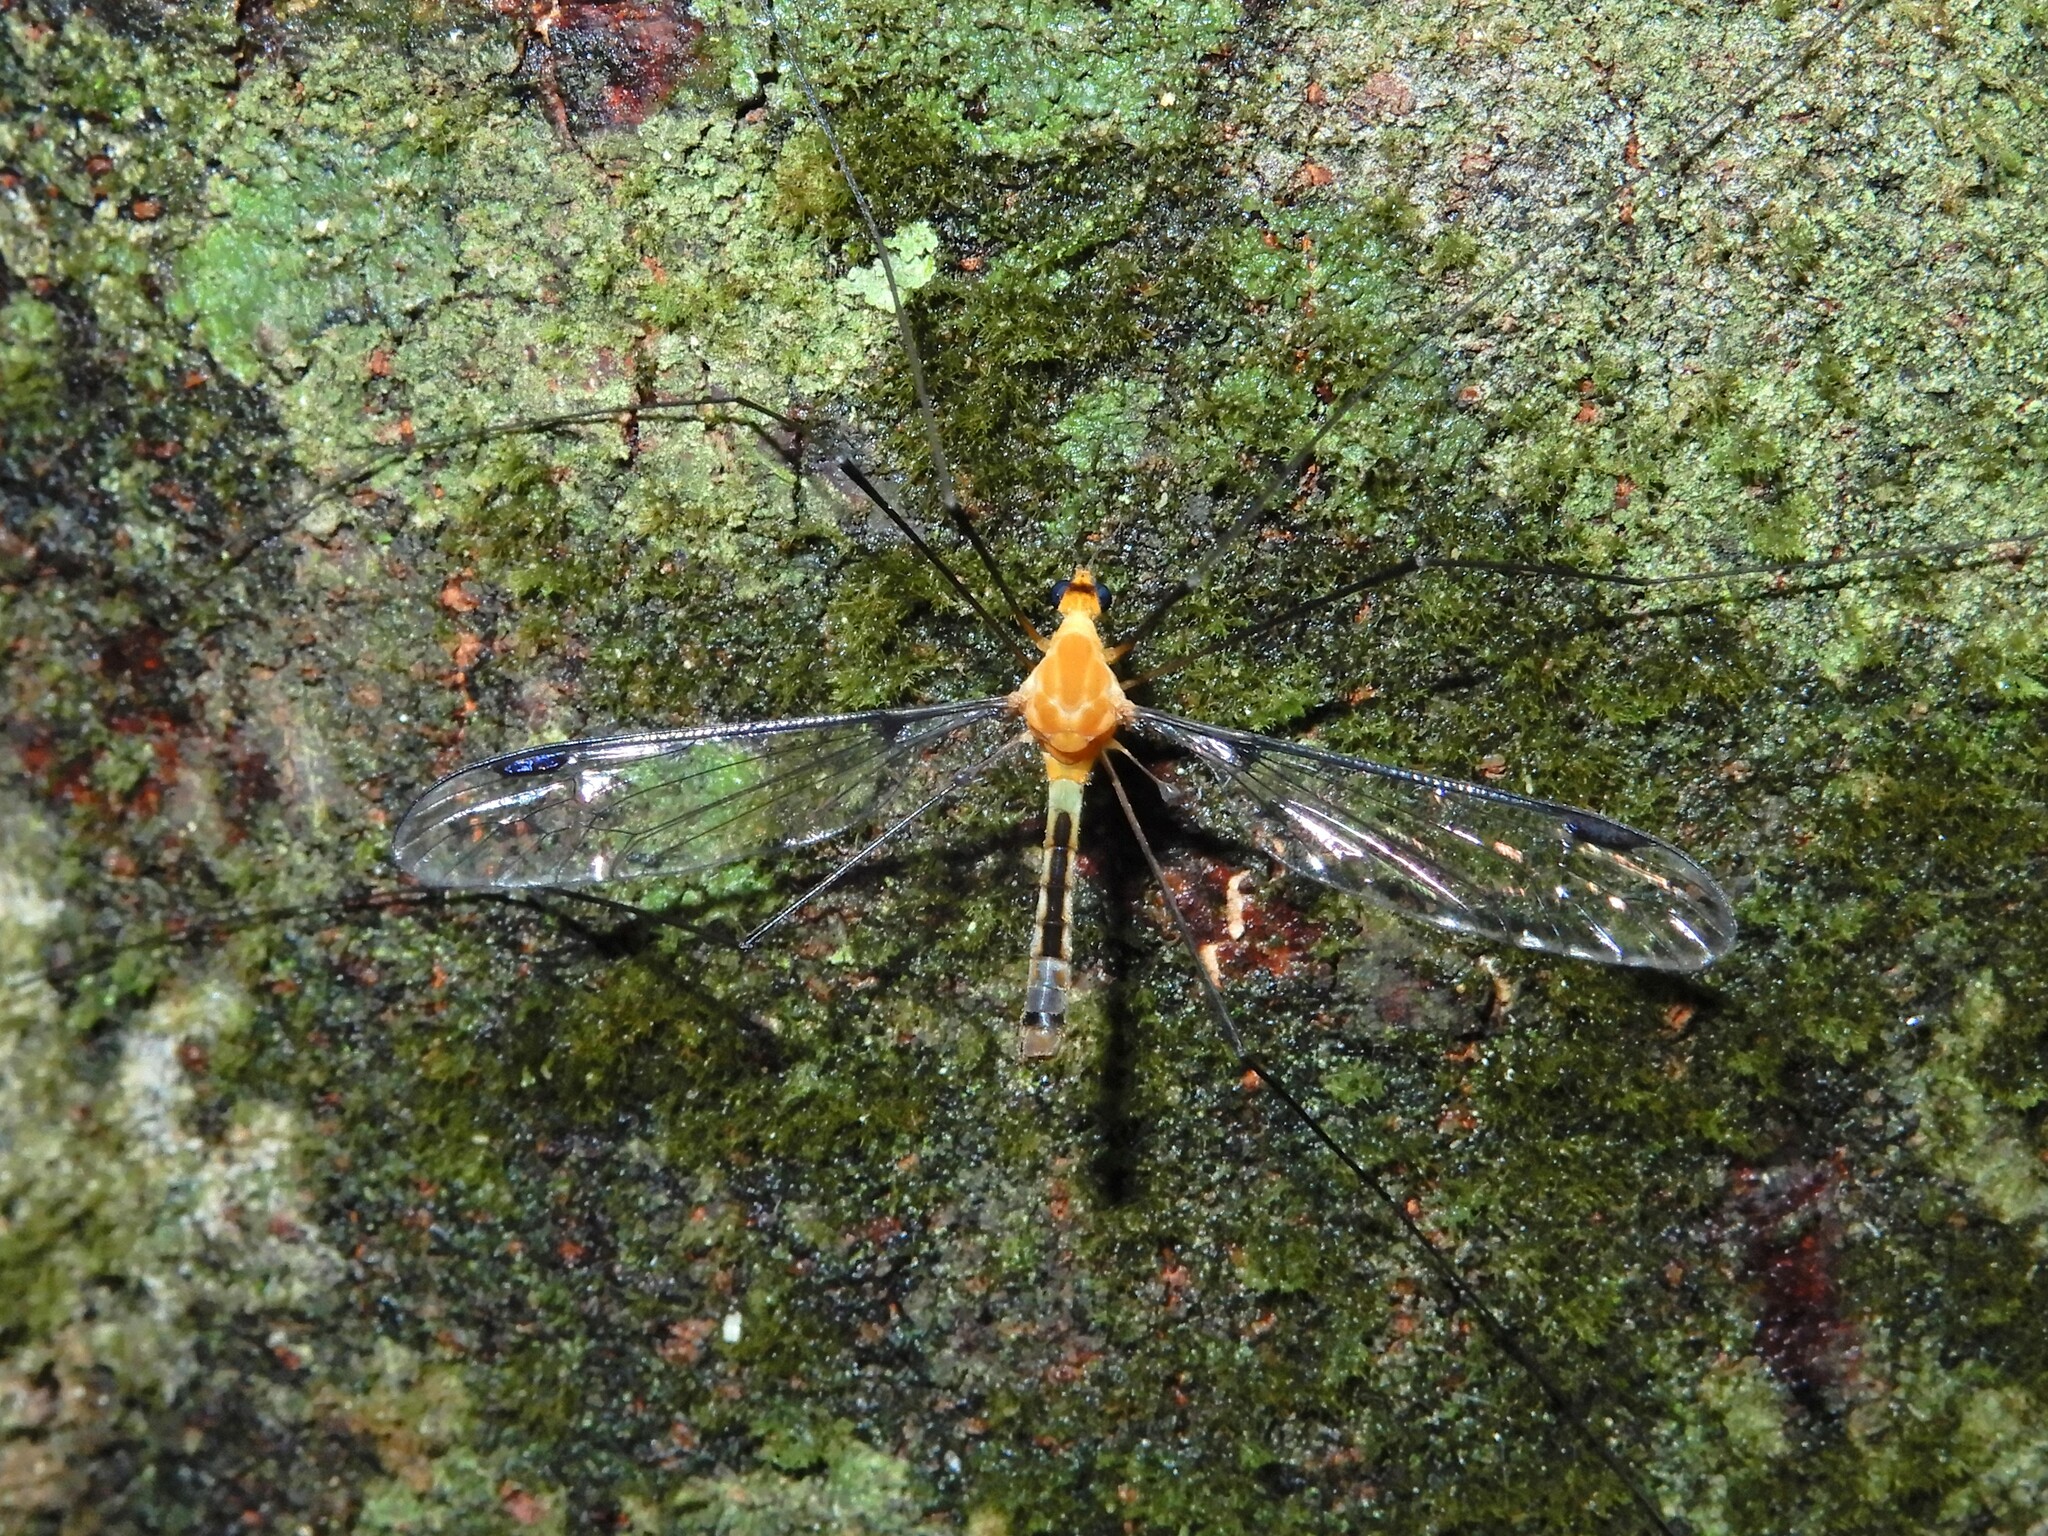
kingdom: Animalia
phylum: Arthropoda
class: Insecta
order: Diptera
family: Tipulidae
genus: Aurotipula
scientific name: Aurotipula
